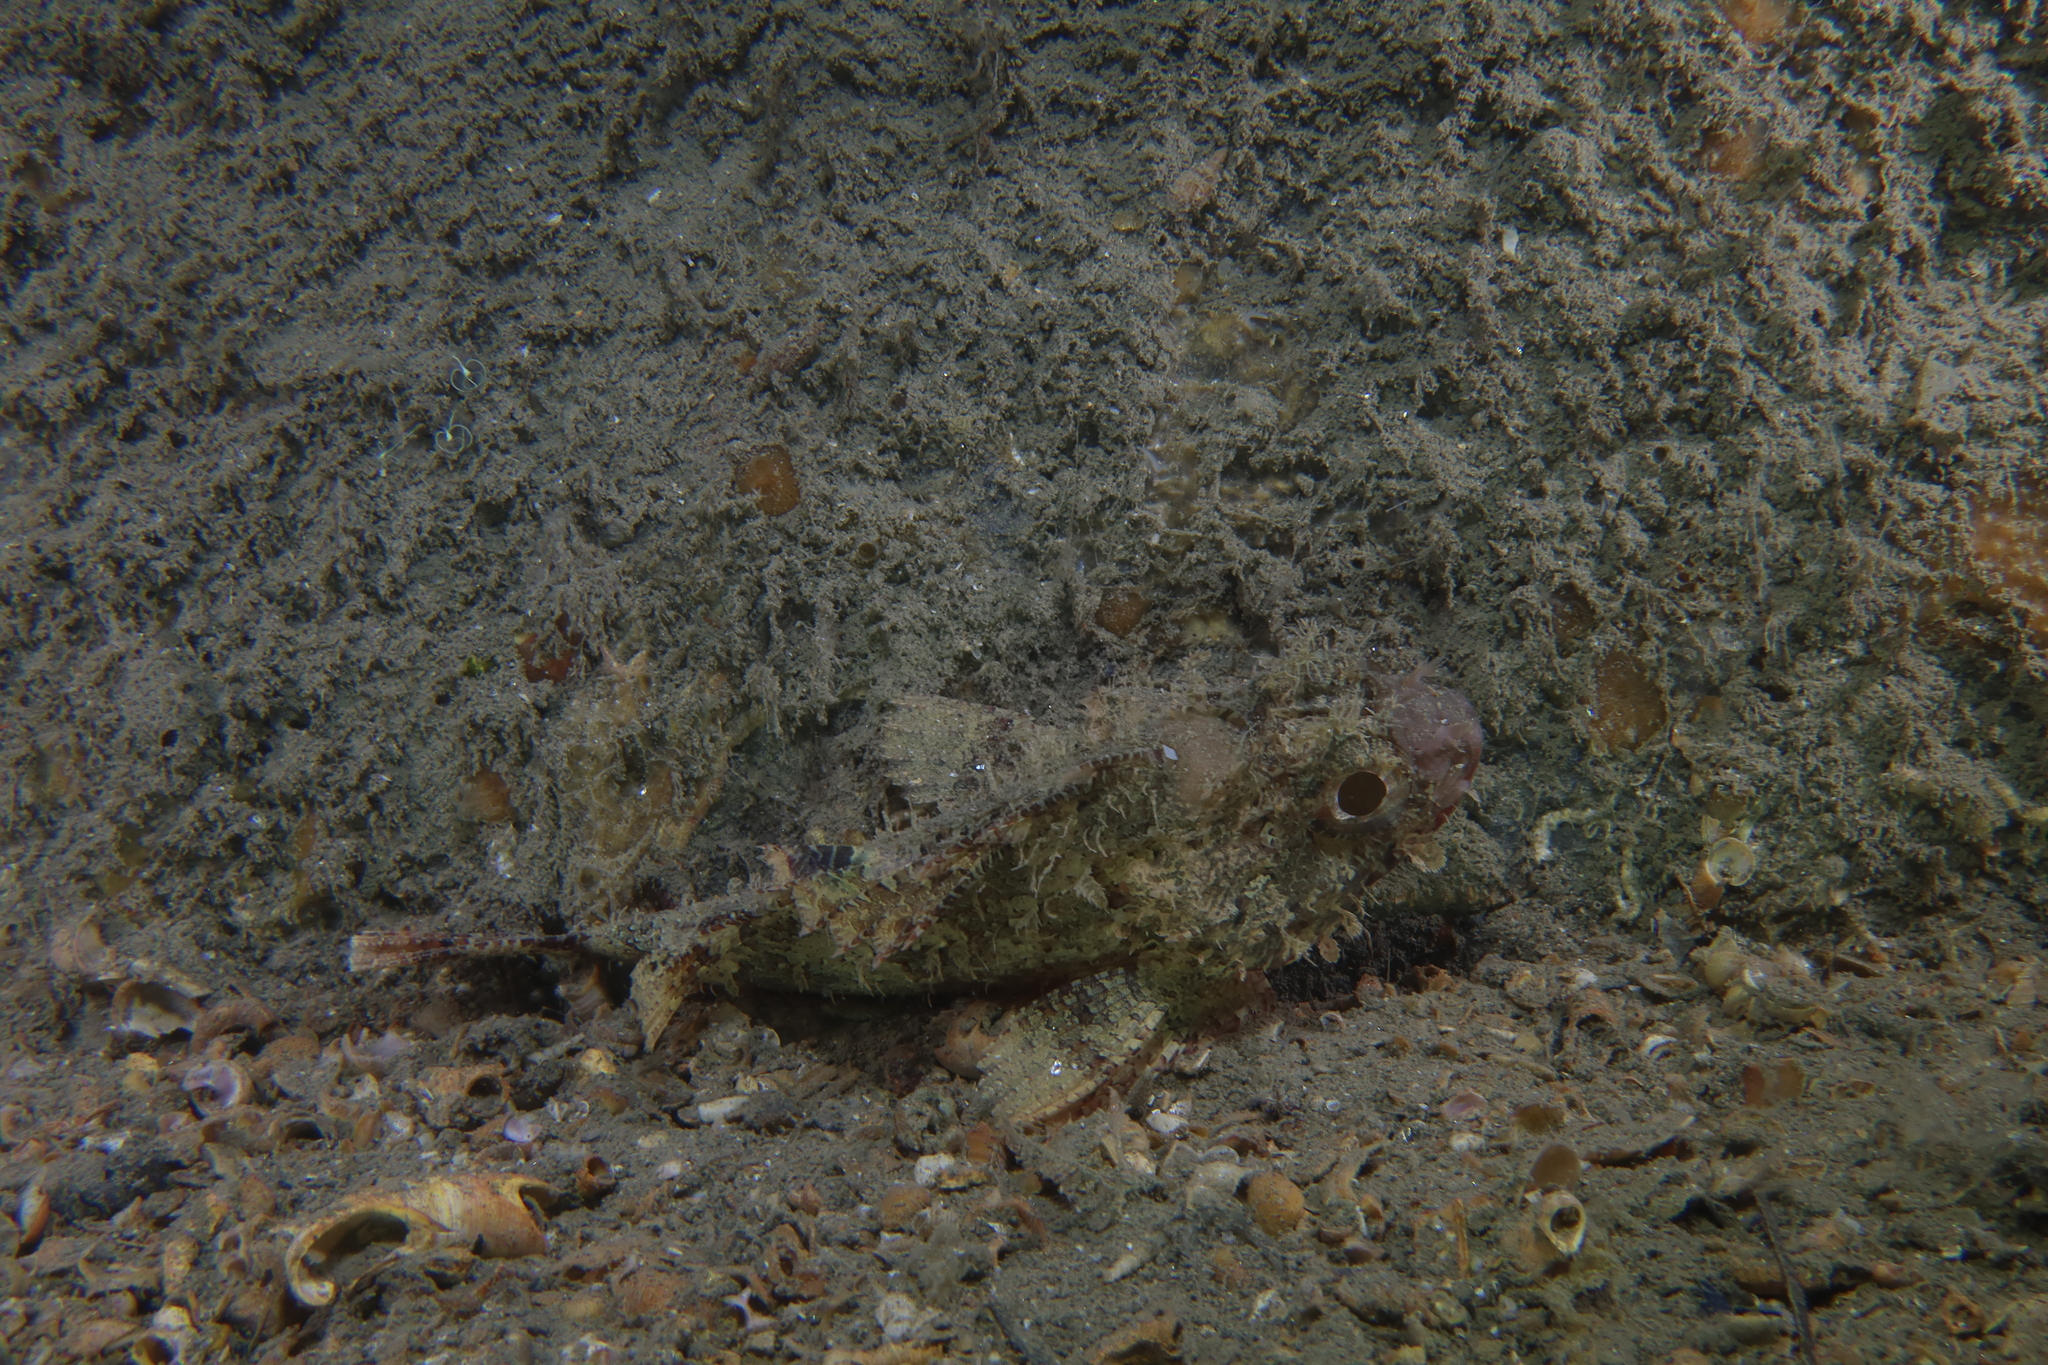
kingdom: Animalia
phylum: Chordata
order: Scorpaeniformes
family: Scorpaenidae
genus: Scorpaena
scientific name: Scorpaena notata
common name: Small red scorpionfish
